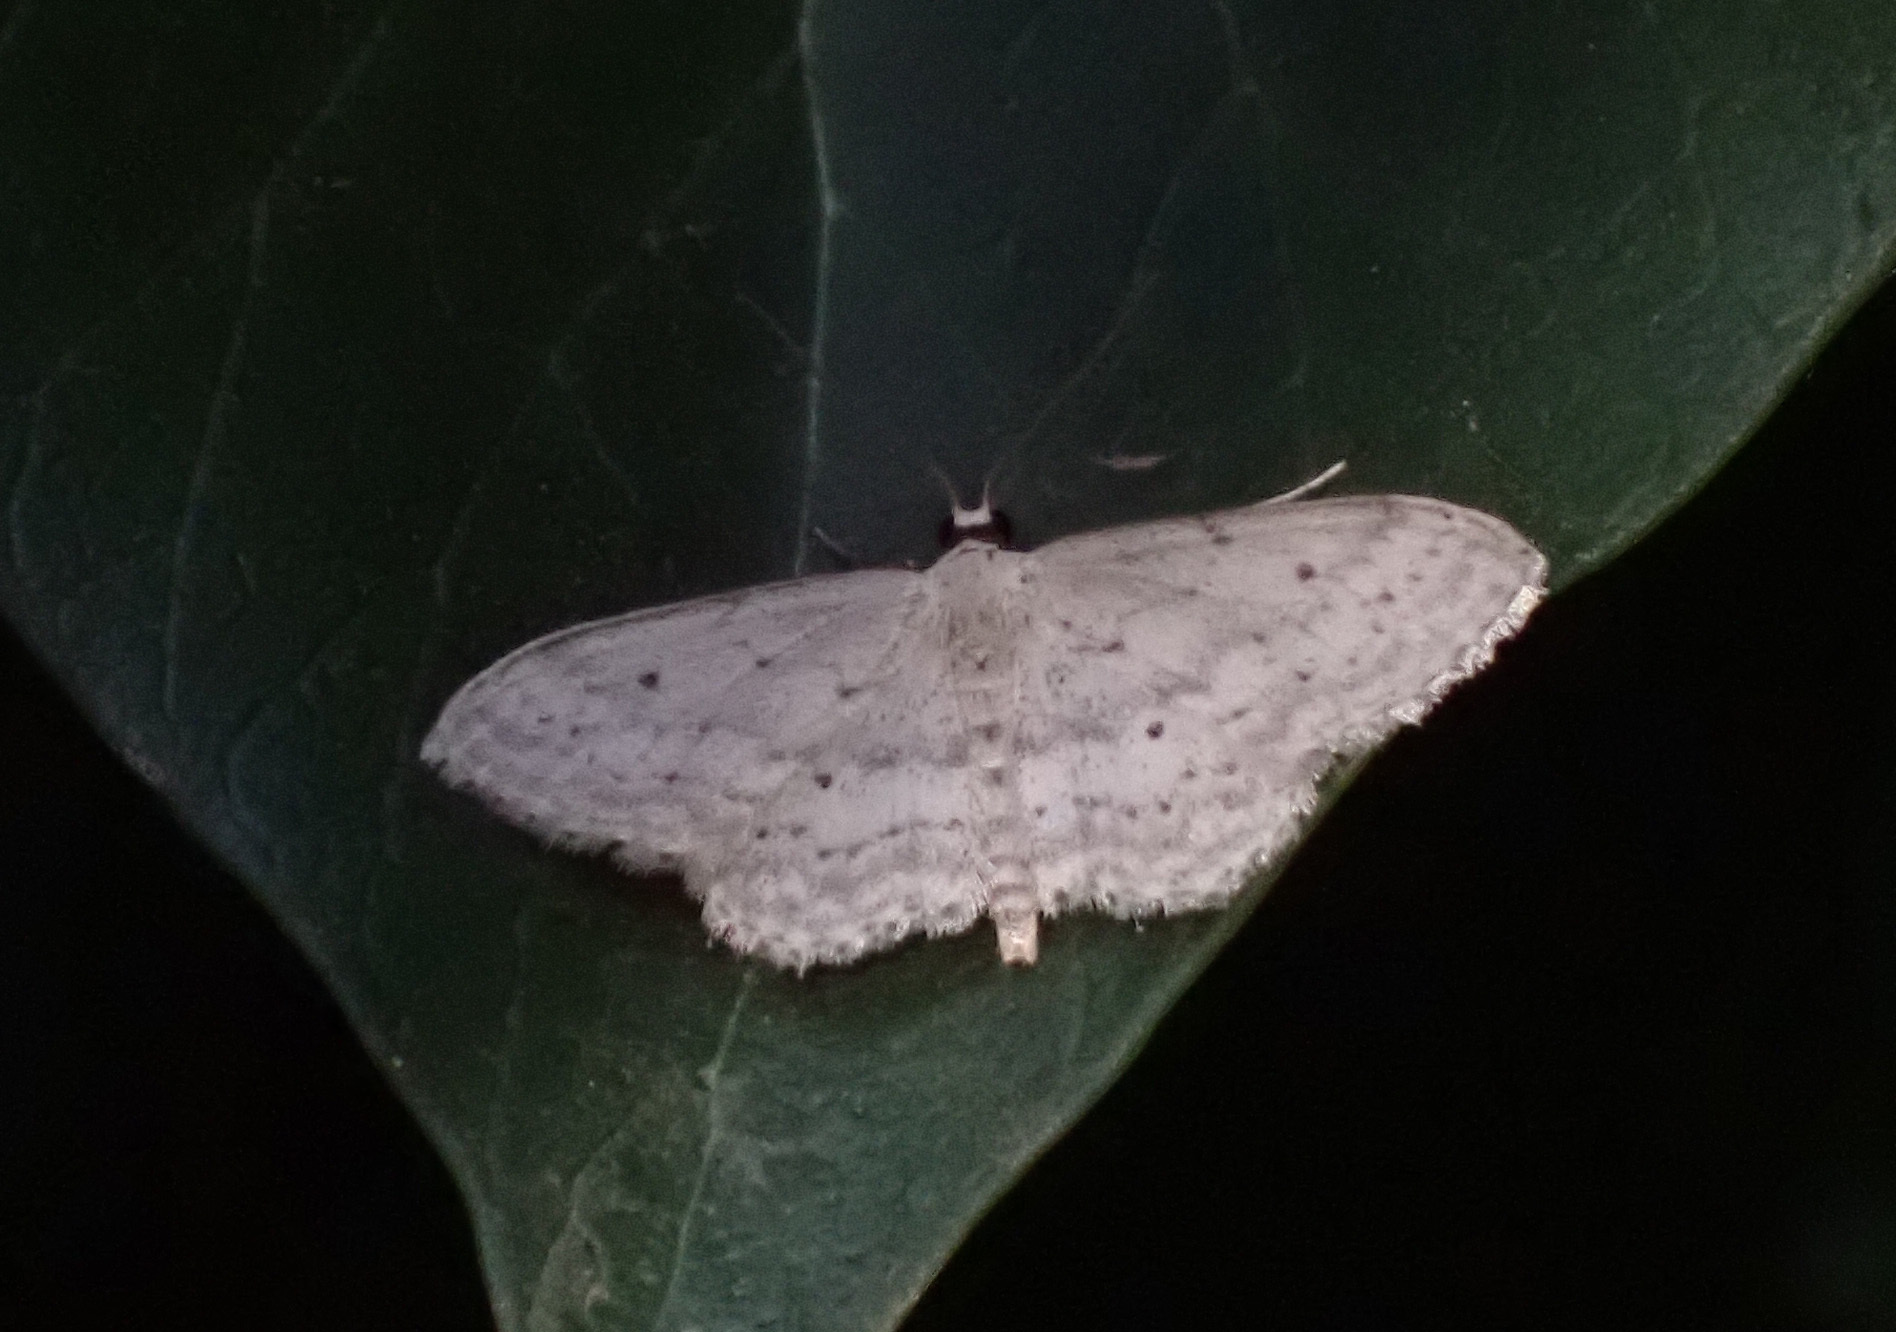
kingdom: Animalia
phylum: Arthropoda
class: Insecta
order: Lepidoptera
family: Geometridae
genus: Idaea
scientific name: Idaea seriata
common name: Small dusty wave
